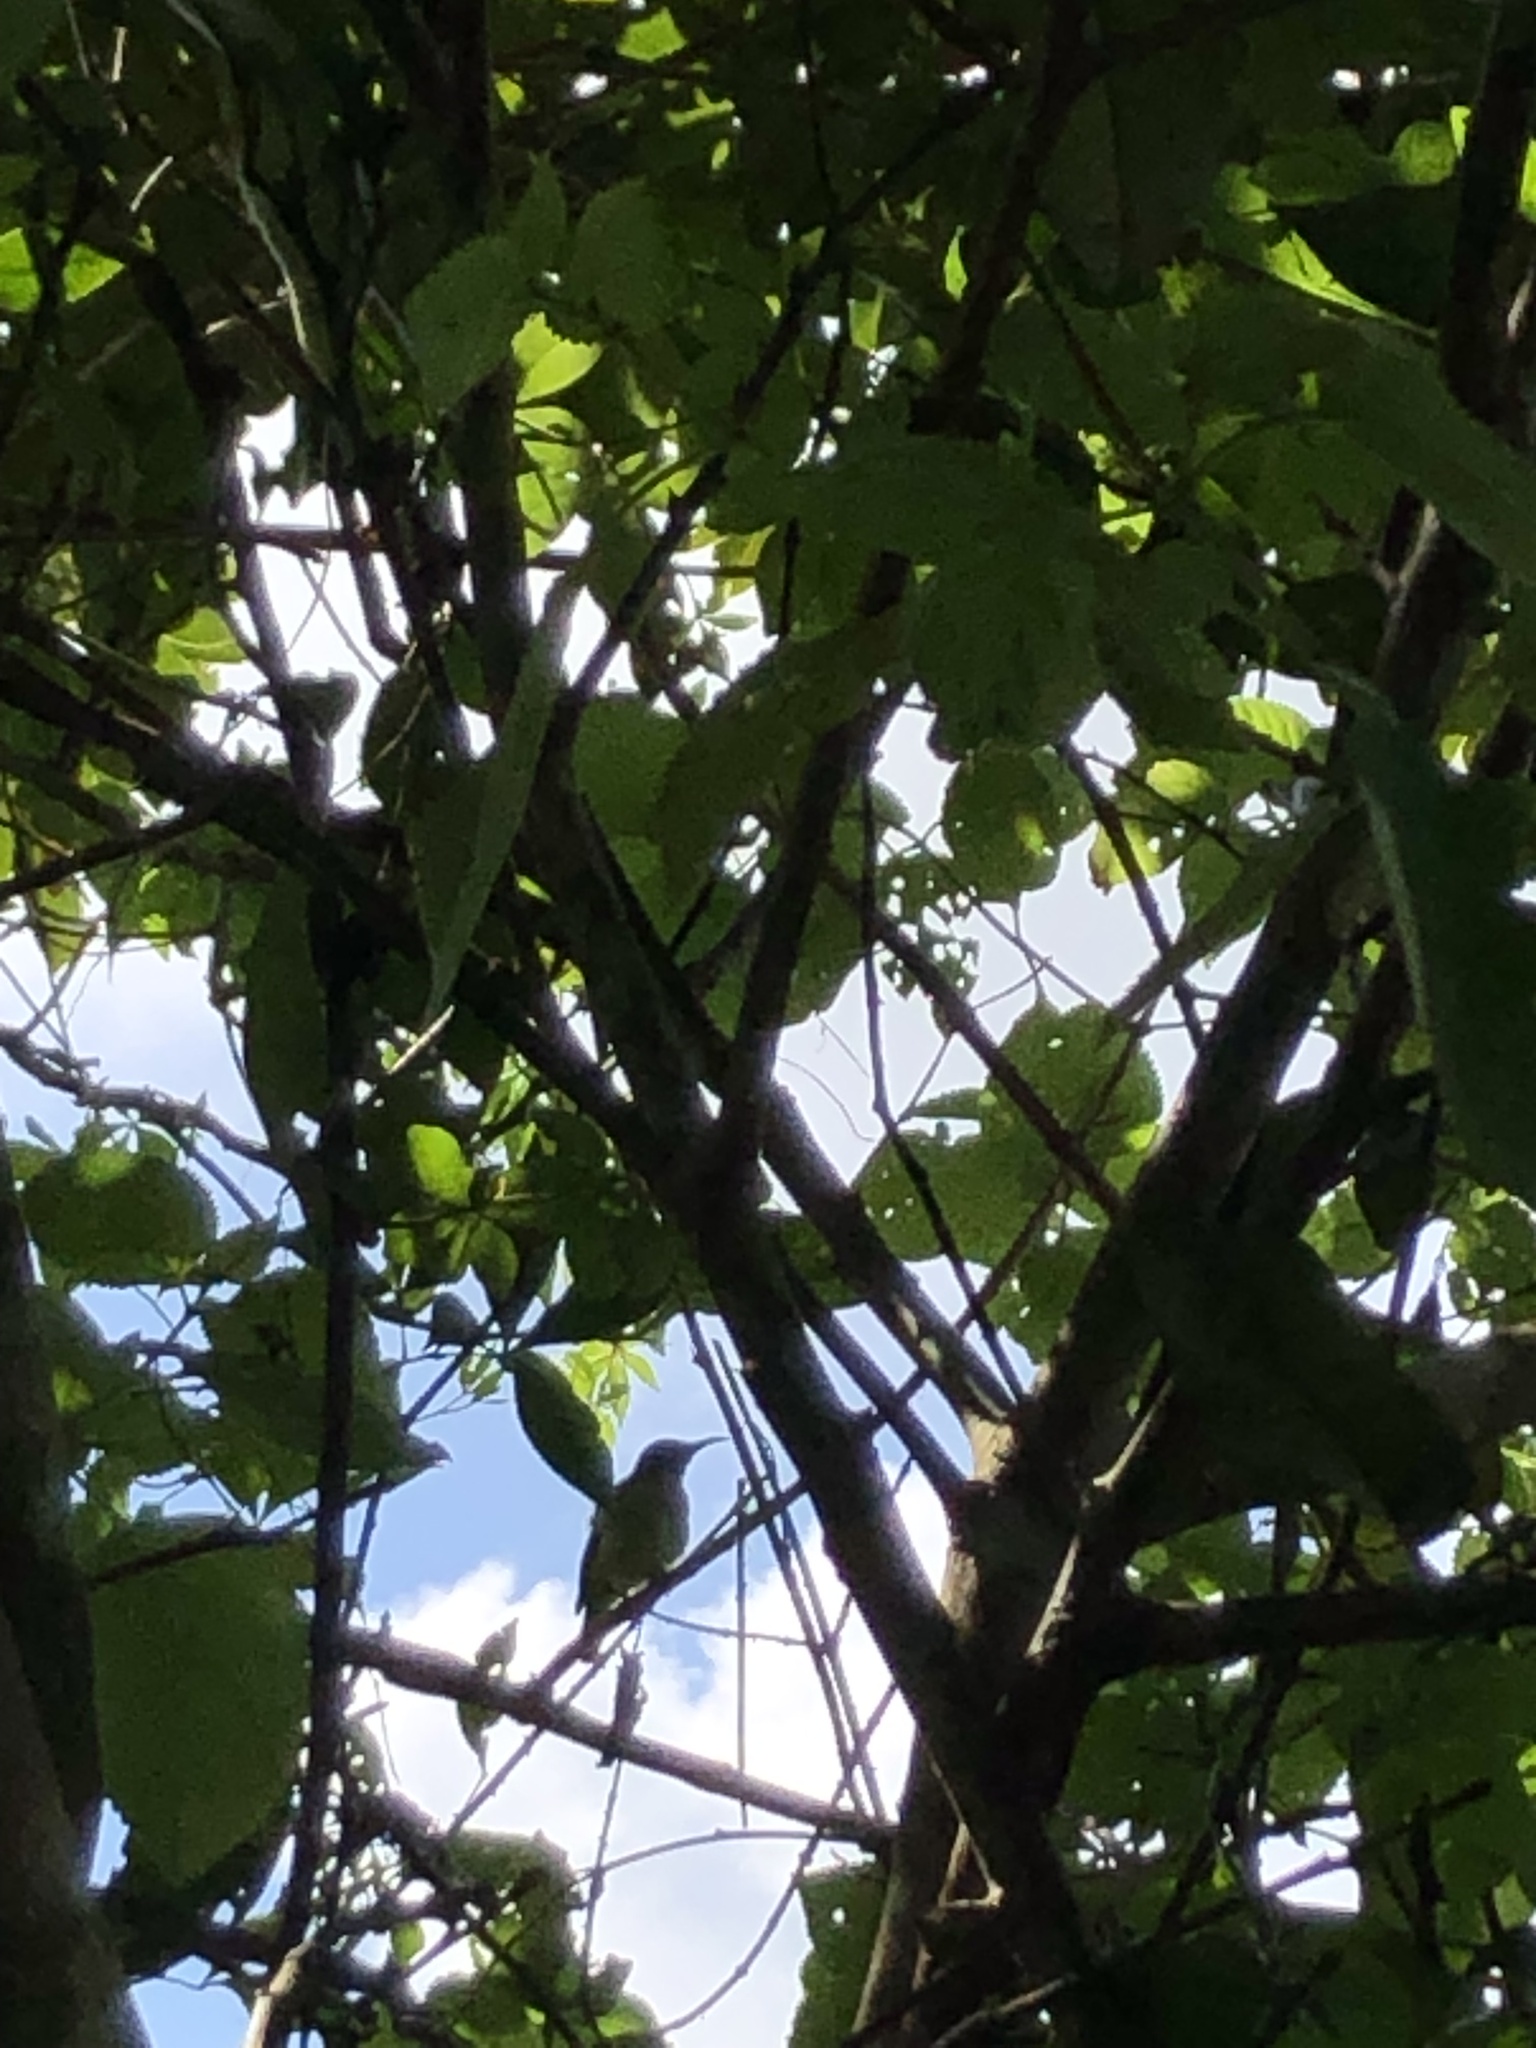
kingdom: Animalia
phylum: Chordata
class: Aves
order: Passeriformes
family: Nectariniidae
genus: Aethopyga
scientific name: Aethopyga christinae
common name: Fork-tailed sunbird
